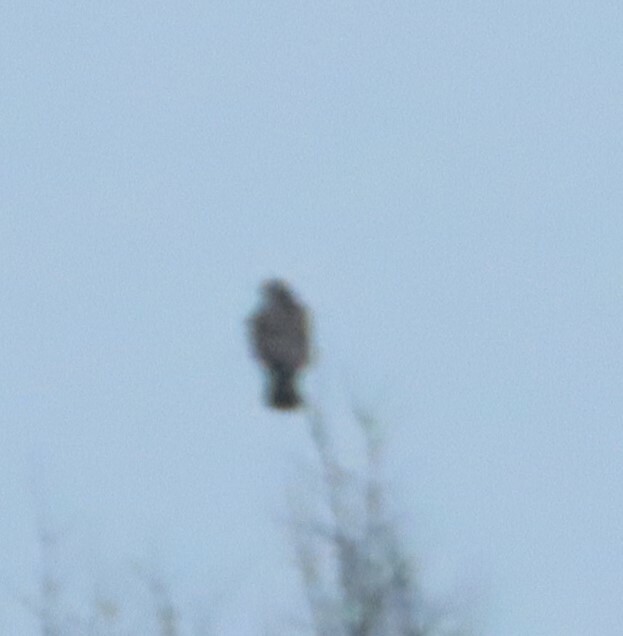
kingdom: Animalia
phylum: Chordata
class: Aves
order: Accipitriformes
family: Accipitridae
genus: Buteo
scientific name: Buteo jamaicensis
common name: Red-tailed hawk
